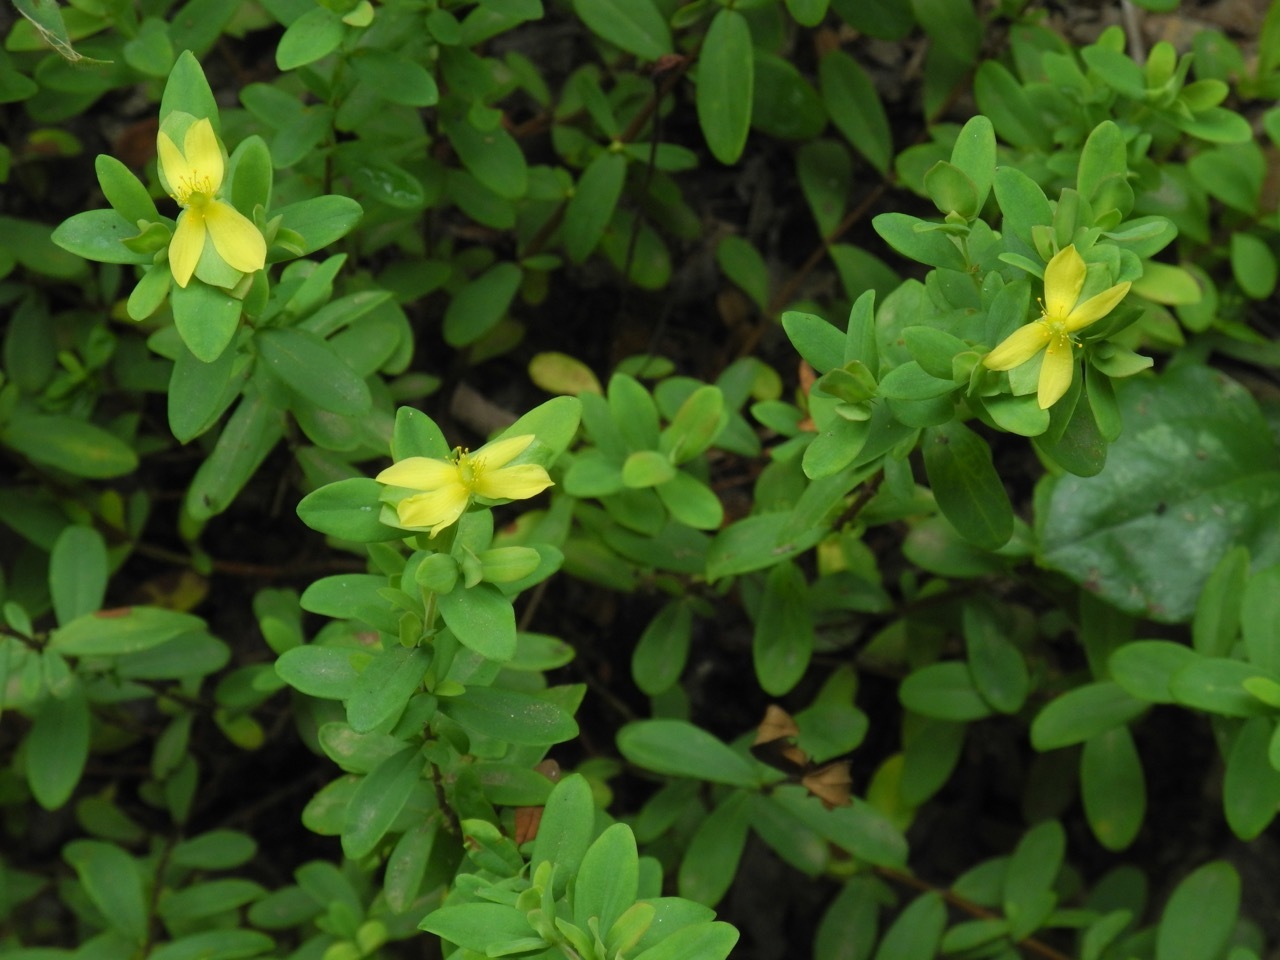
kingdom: Plantae
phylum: Tracheophyta
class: Magnoliopsida
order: Malpighiales
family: Hypericaceae
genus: Hypericum
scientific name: Hypericum hypericoides
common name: St. andrew's cross
